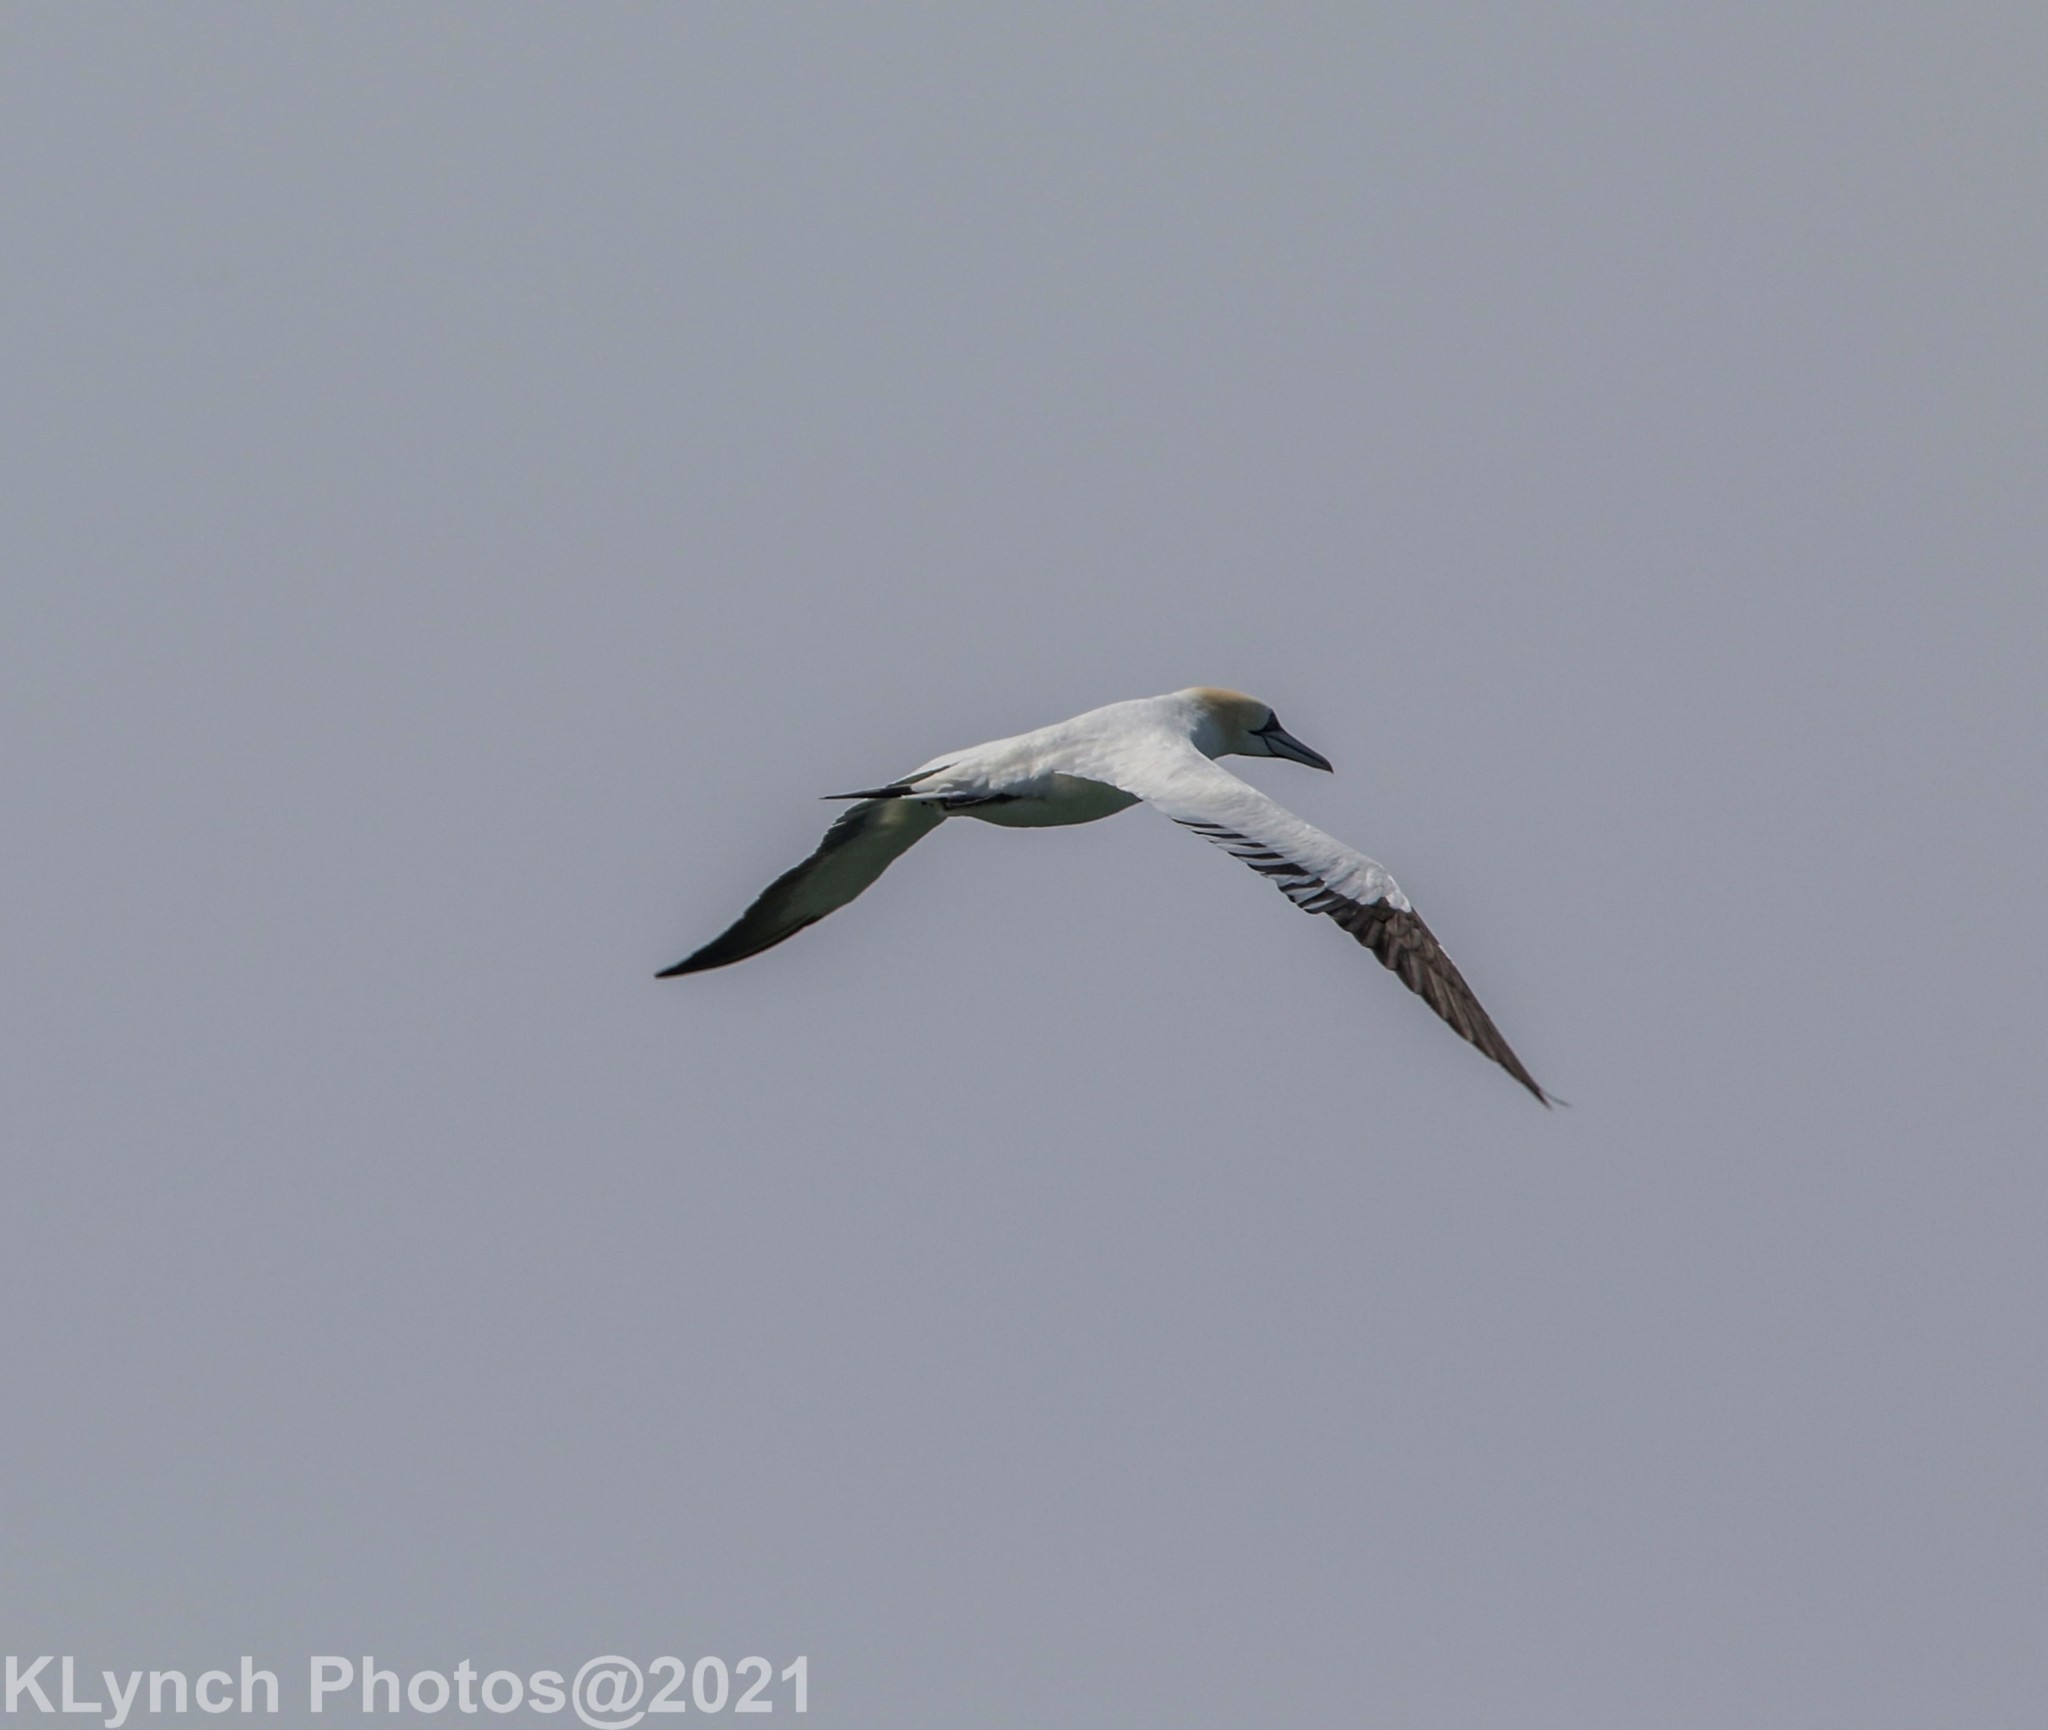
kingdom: Animalia
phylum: Chordata
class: Aves
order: Suliformes
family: Sulidae
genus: Morus
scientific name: Morus bassanus
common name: Northern gannet
